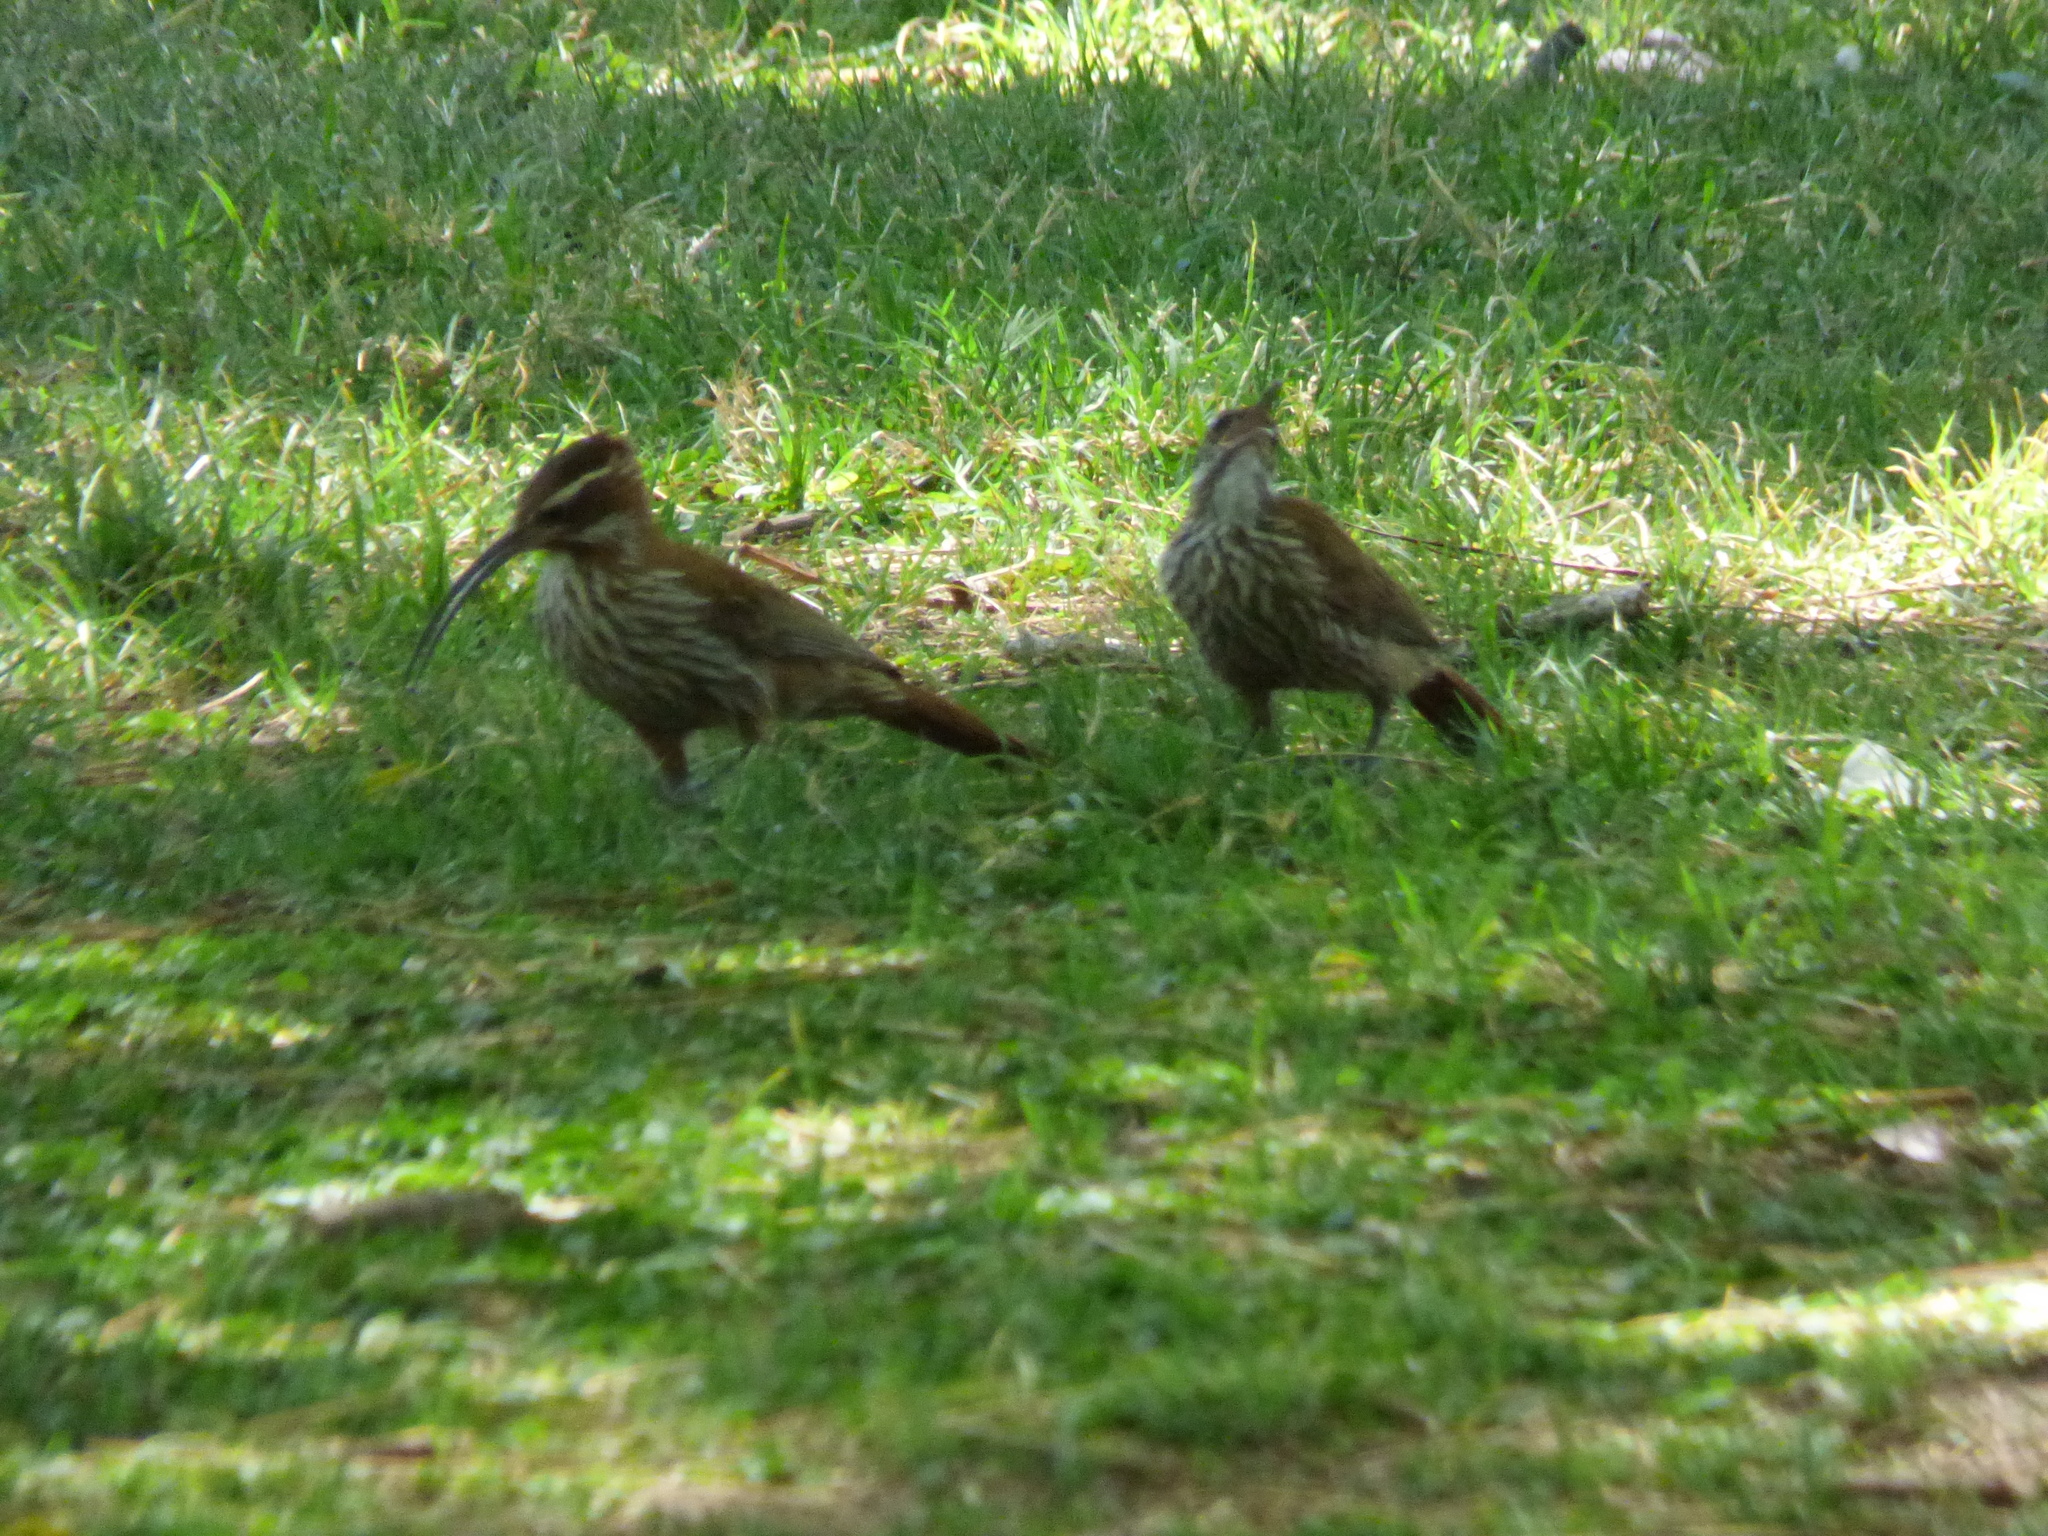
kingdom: Animalia
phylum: Chordata
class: Aves
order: Passeriformes
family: Furnariidae
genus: Drymornis
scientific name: Drymornis bridgesii
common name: Scimitar-billed woodcreeper
